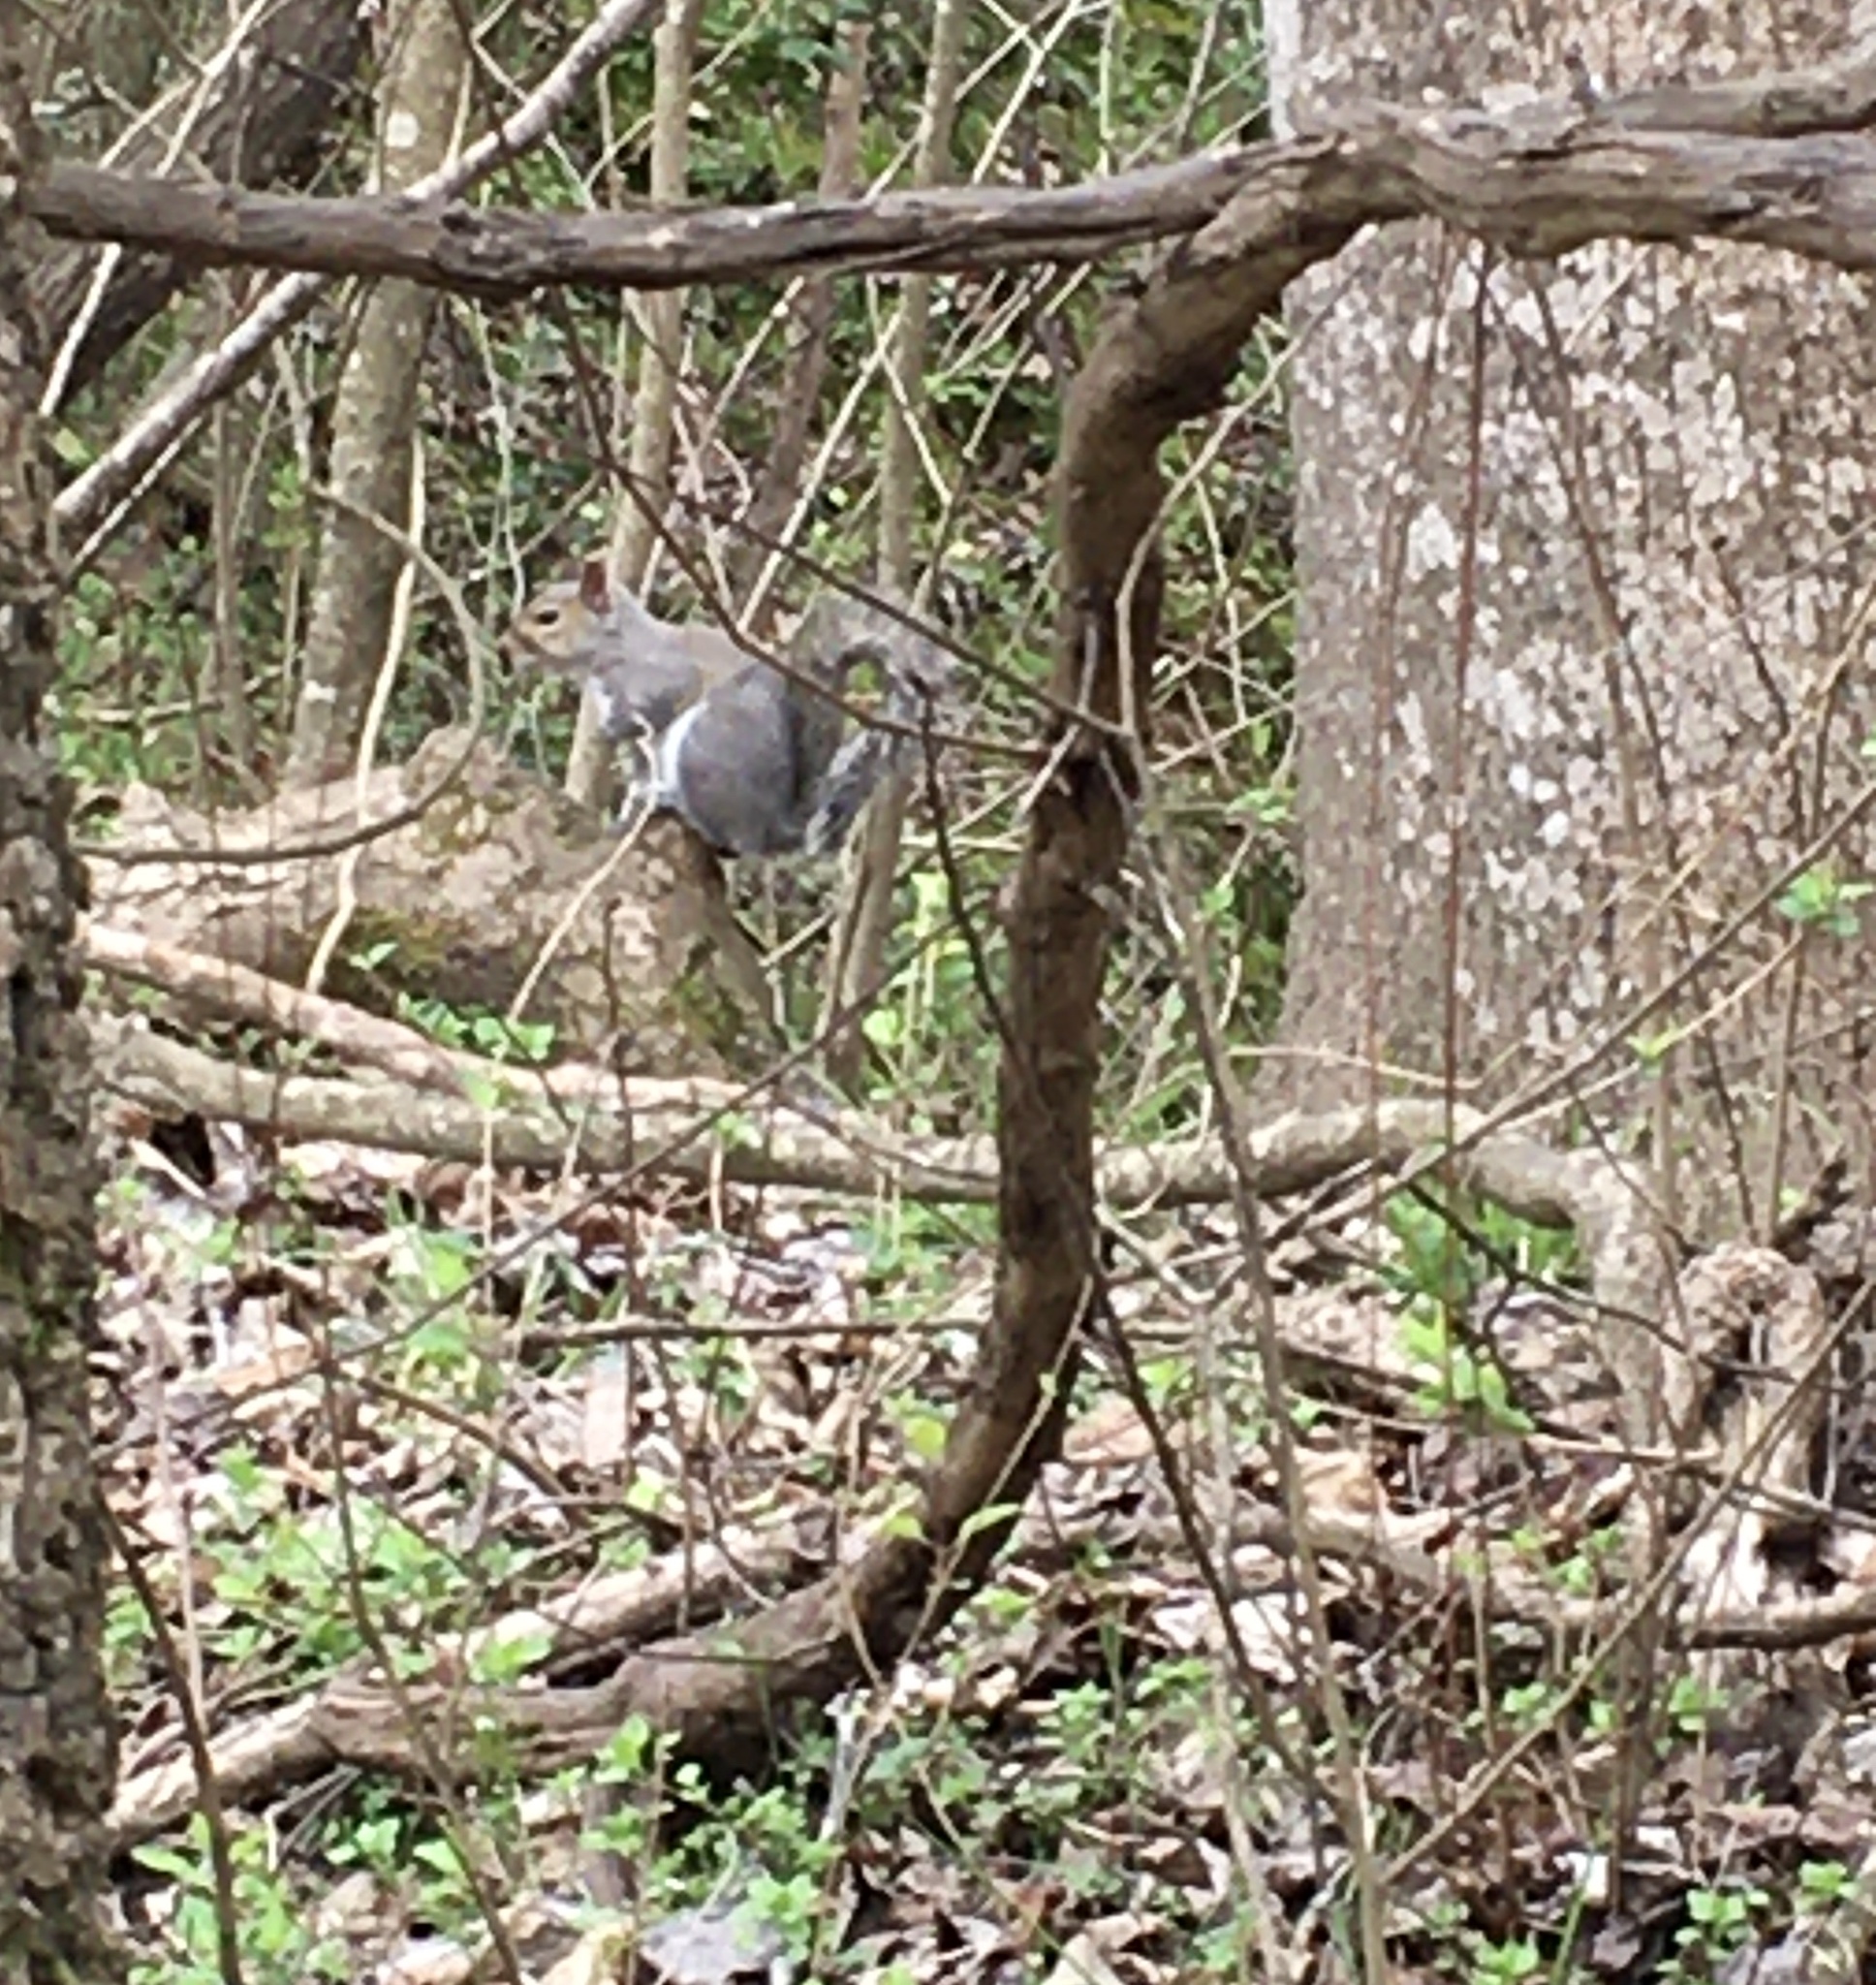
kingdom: Animalia
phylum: Chordata
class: Mammalia
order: Rodentia
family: Sciuridae
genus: Sciurus
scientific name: Sciurus carolinensis
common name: Eastern gray squirrel
